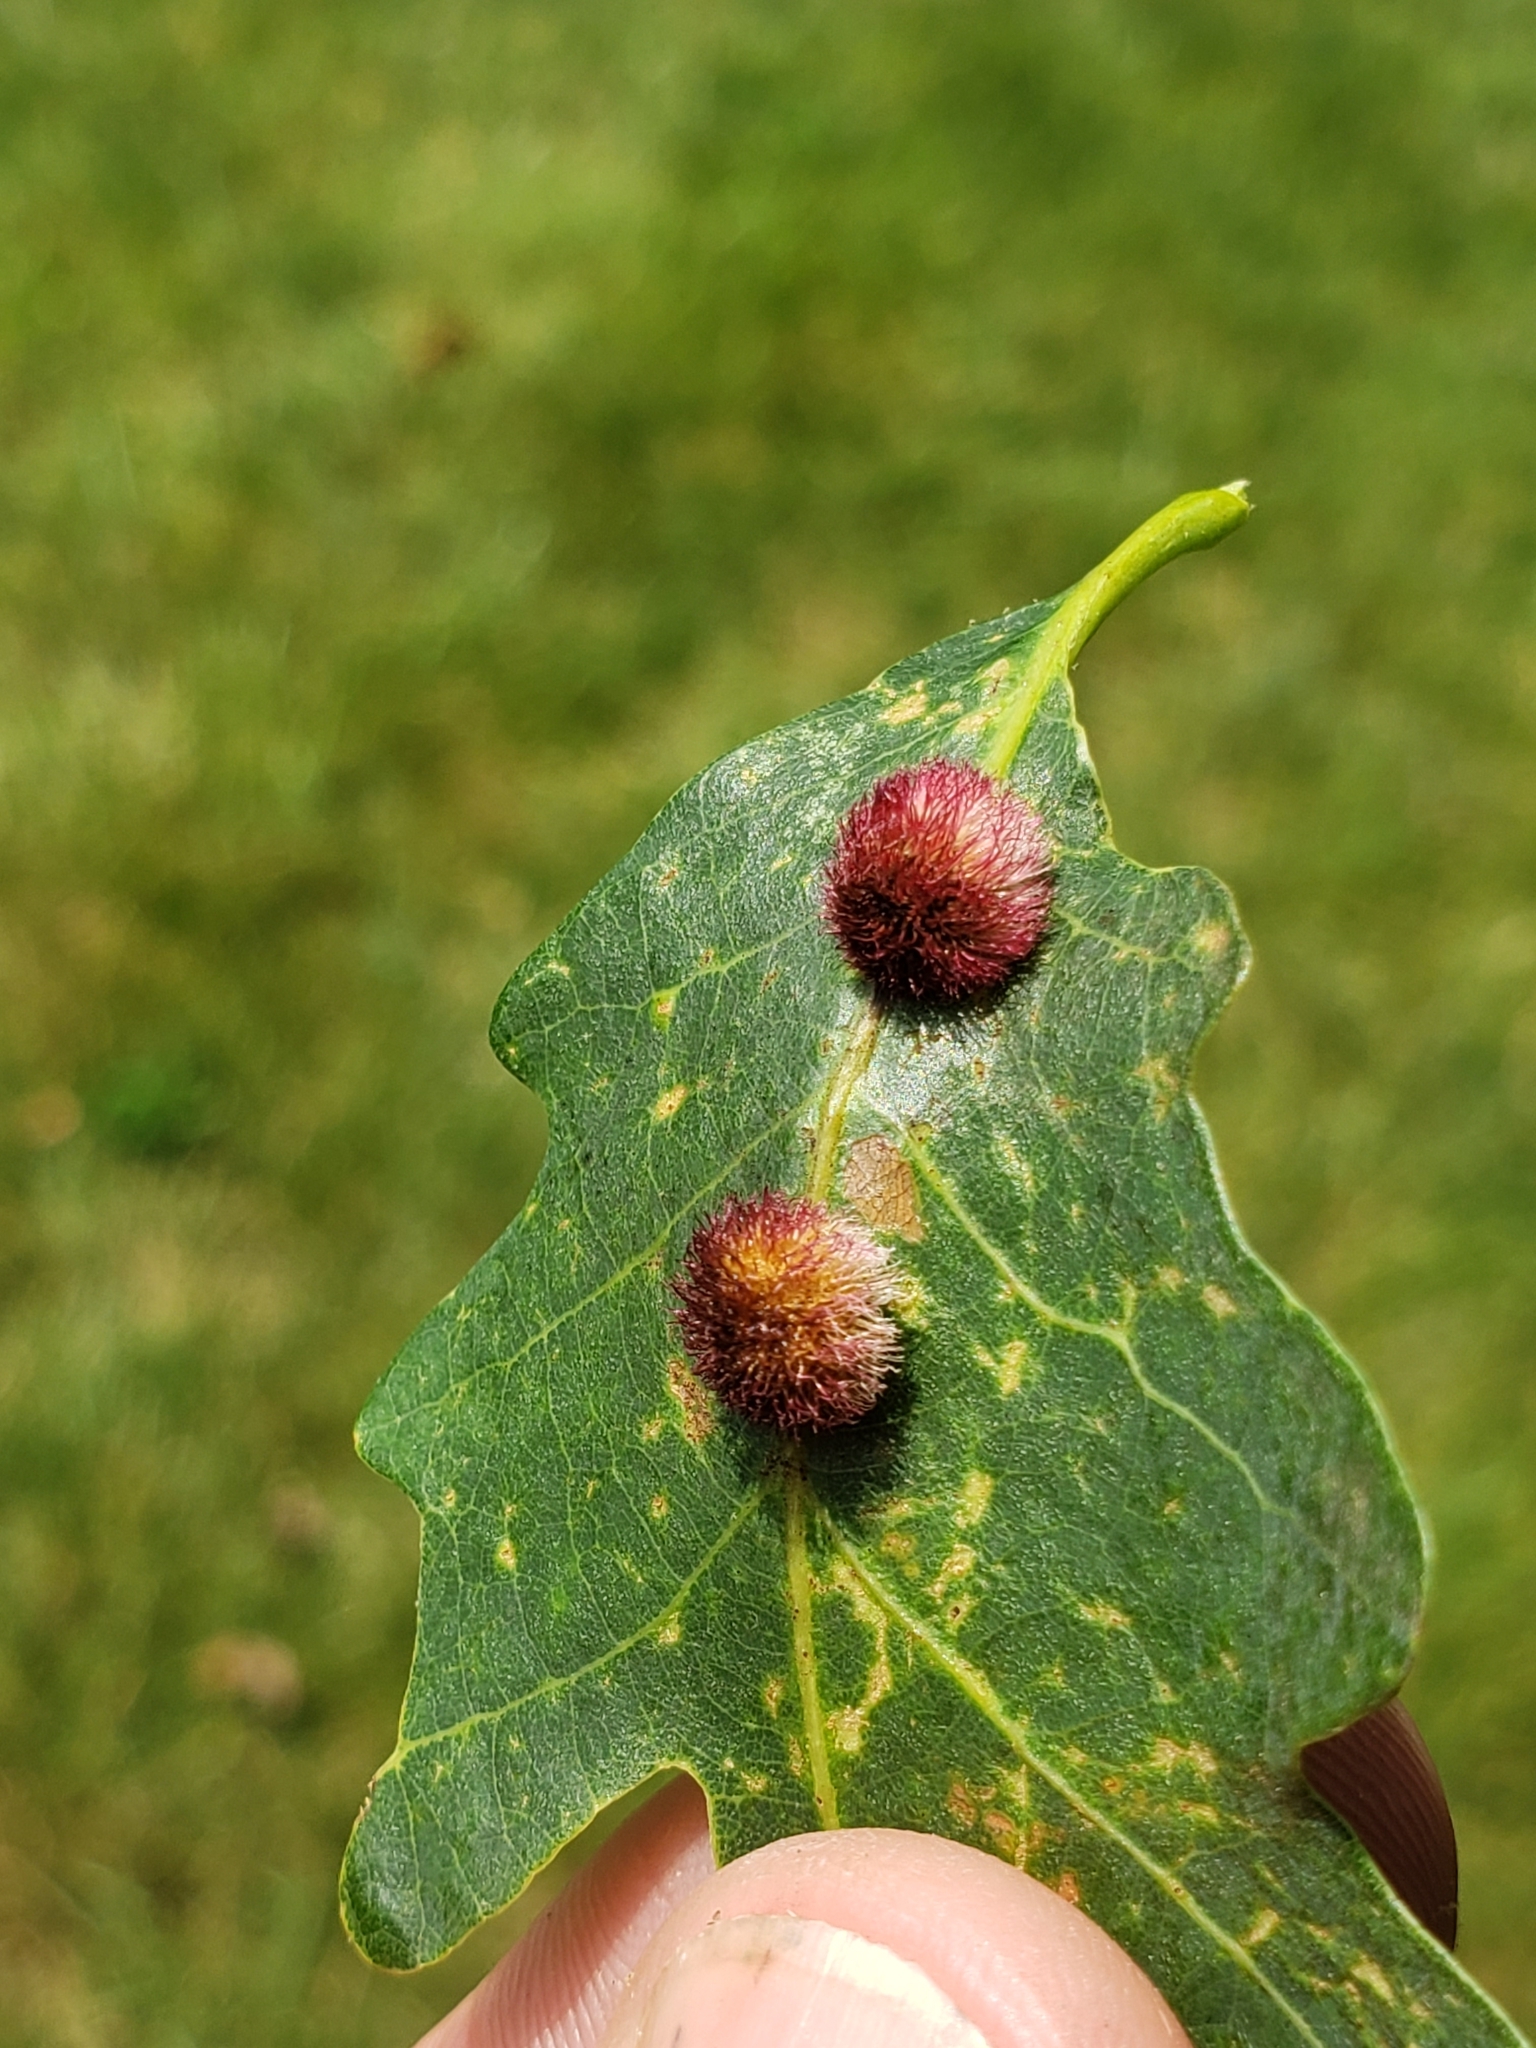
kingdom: Animalia
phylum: Arthropoda
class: Insecta
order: Hymenoptera
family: Cynipidae
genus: Acraspis
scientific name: Acraspis erinacei
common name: Hedgehog gall wasp
